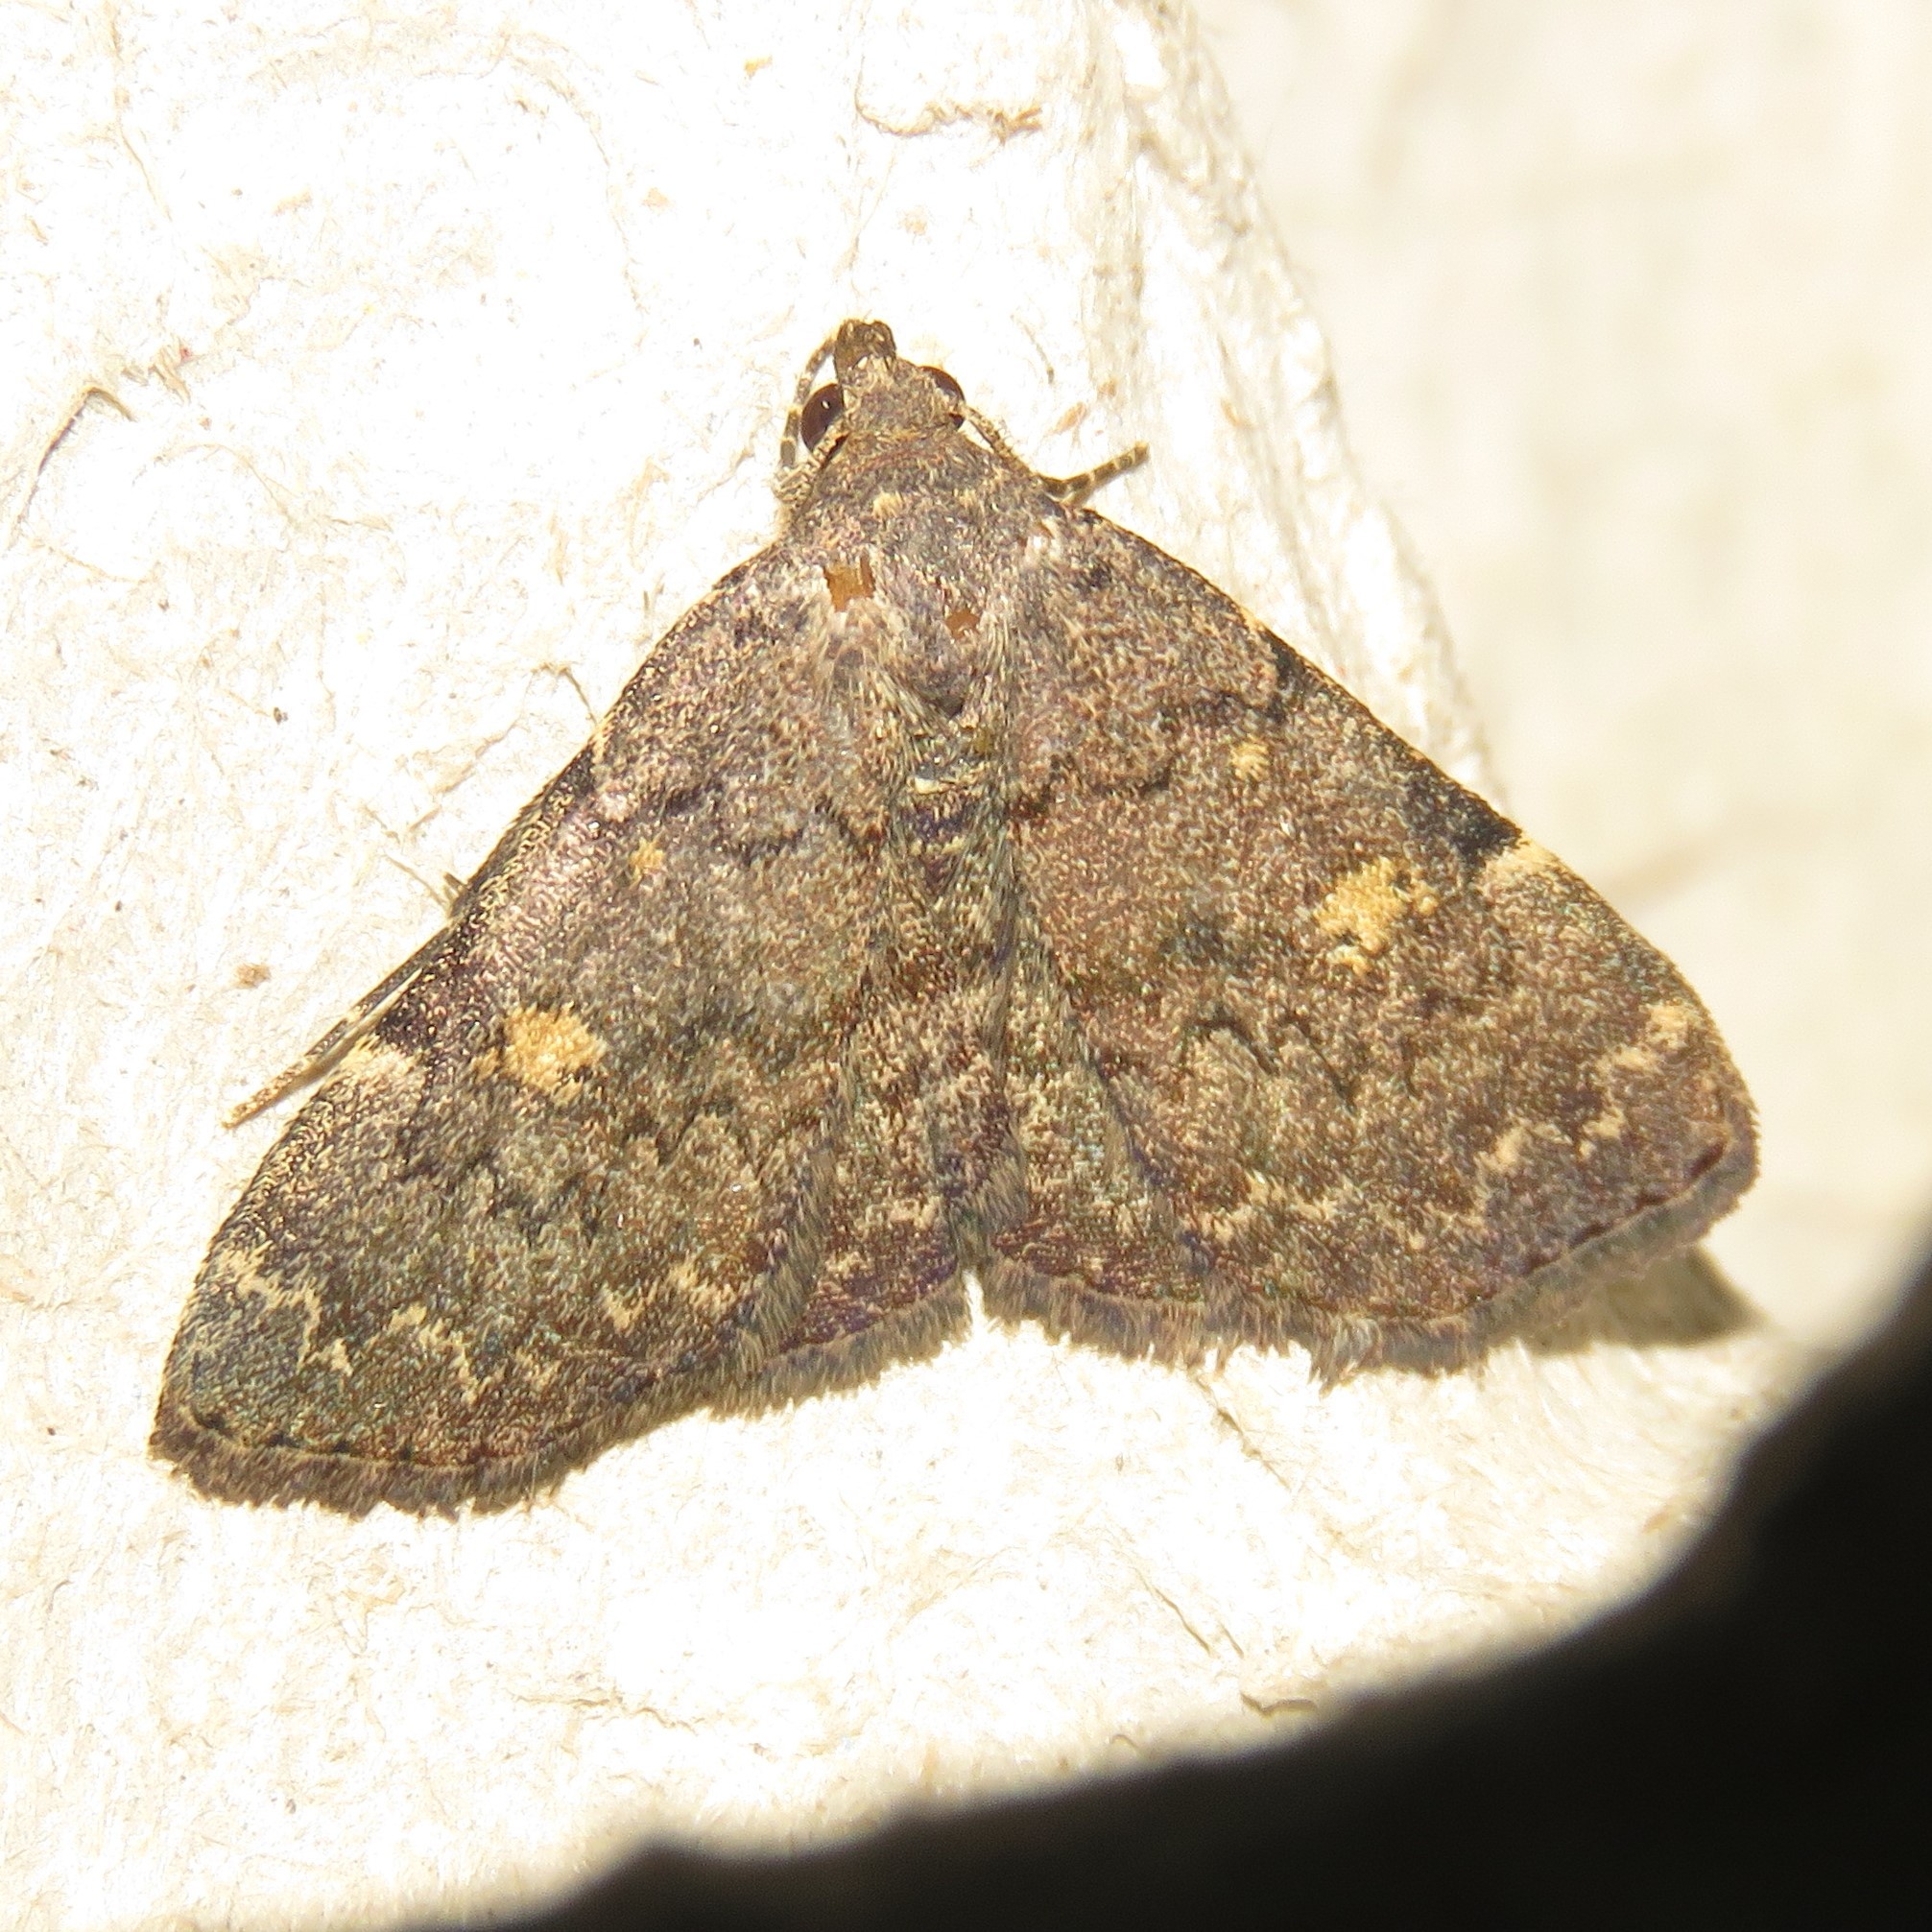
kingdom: Animalia
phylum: Arthropoda
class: Insecta
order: Lepidoptera
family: Erebidae
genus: Idia
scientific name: Idia aemula
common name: Common idia moth
